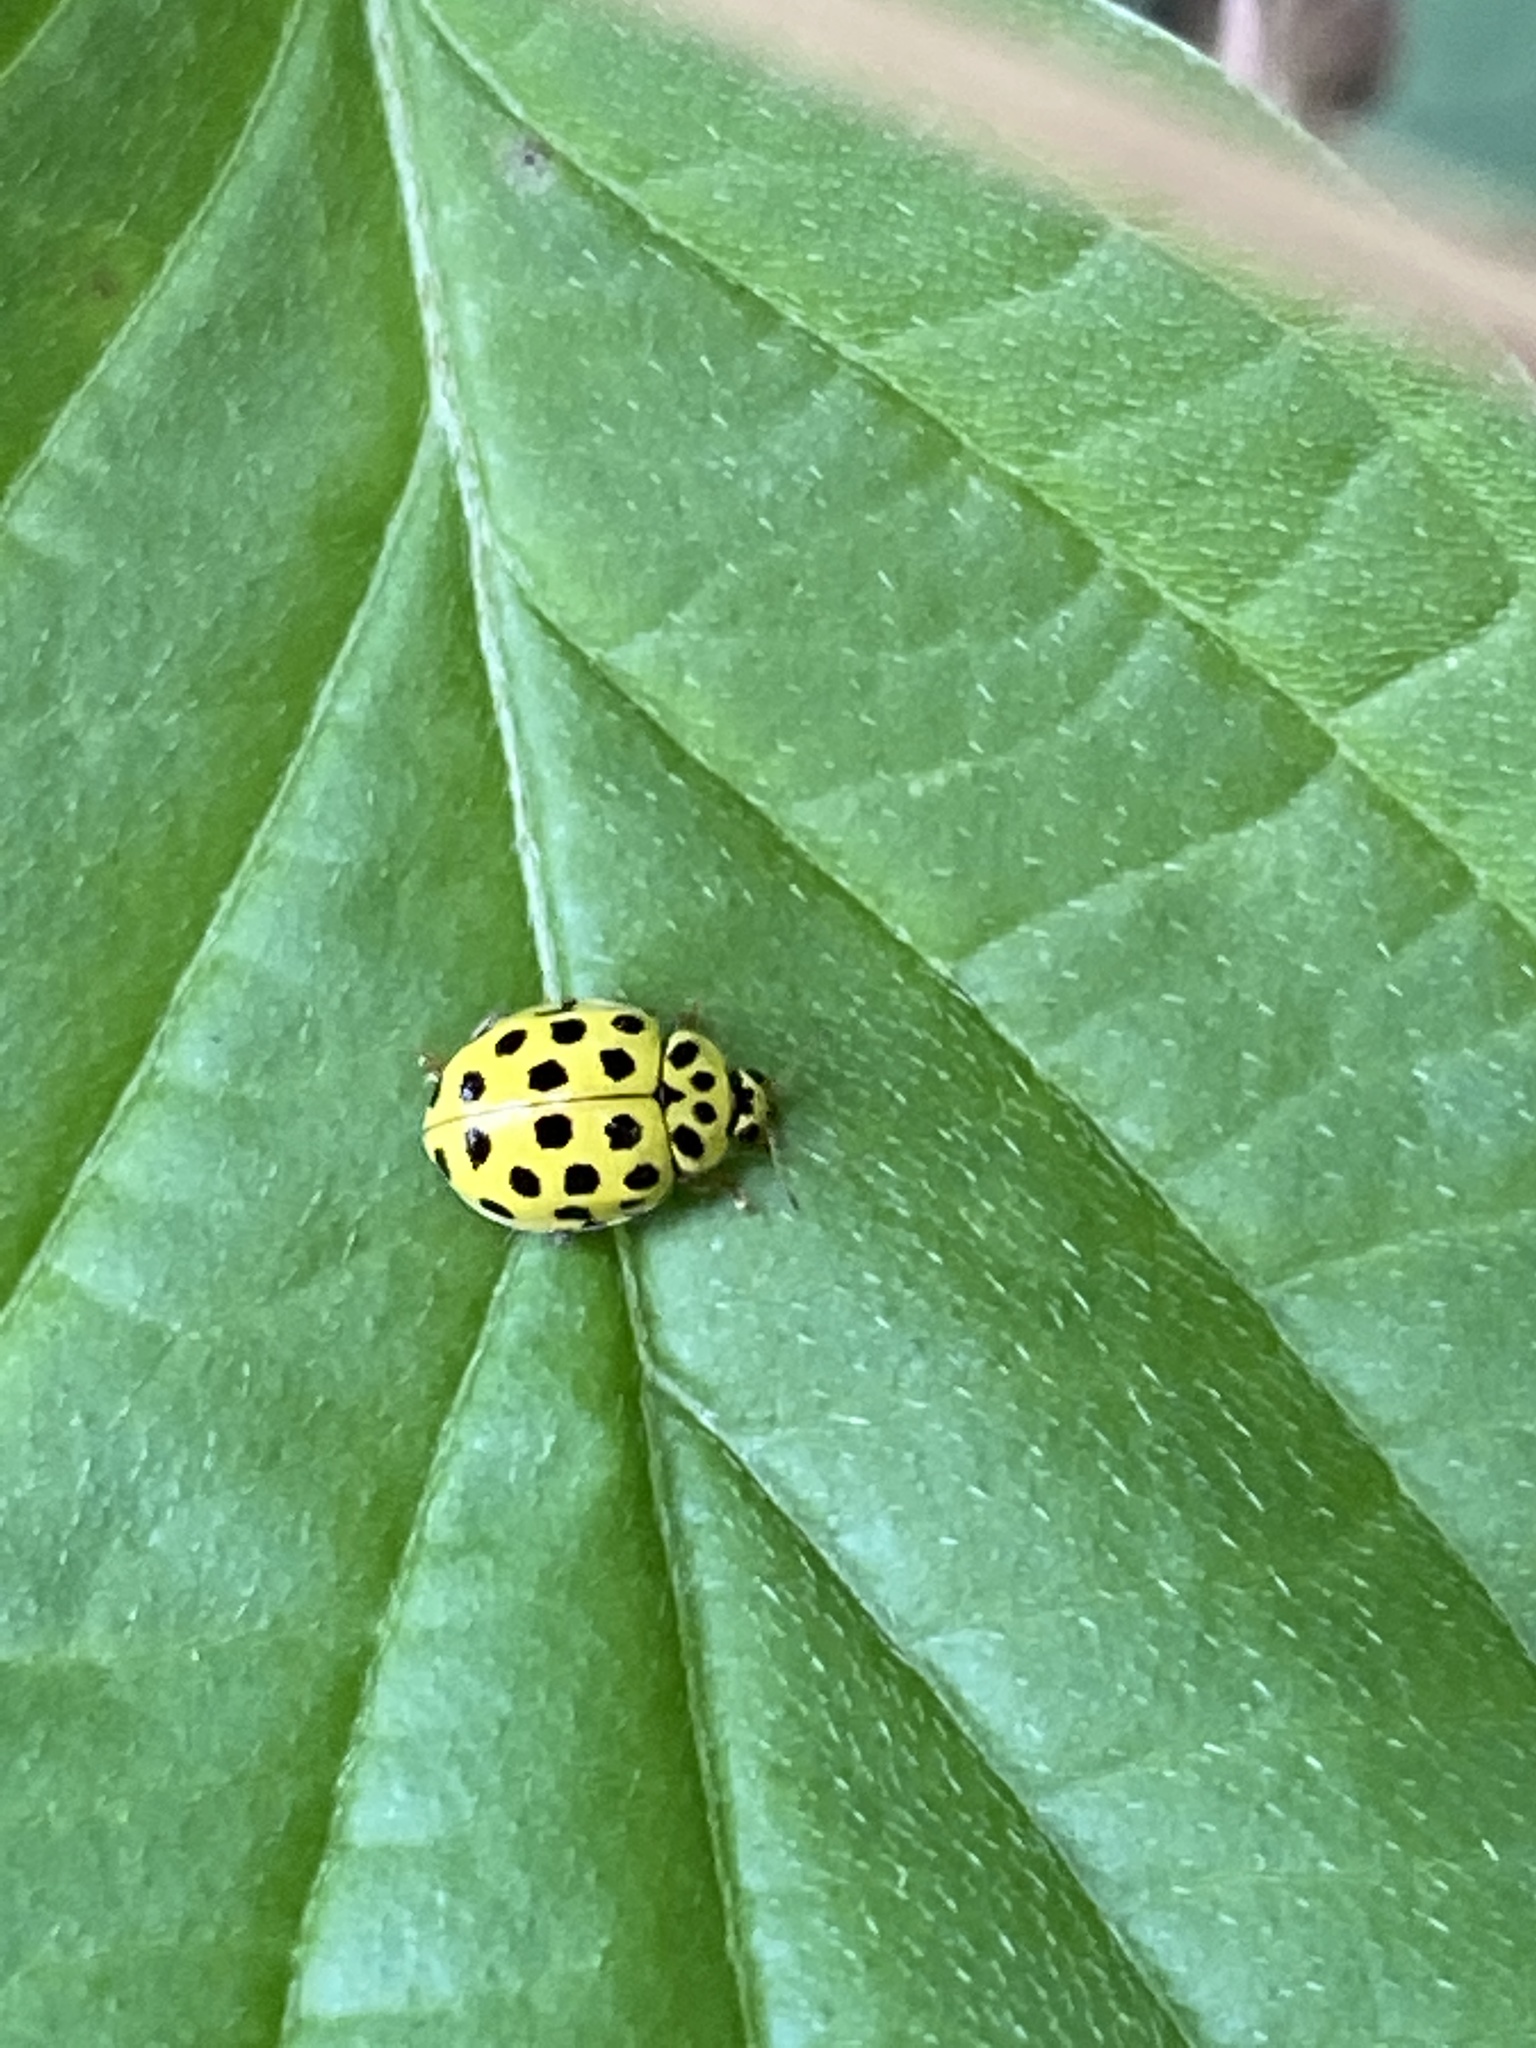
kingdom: Animalia
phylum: Arthropoda
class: Insecta
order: Coleoptera
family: Coccinellidae
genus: Psyllobora
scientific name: Psyllobora vigintiduopunctata
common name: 22-spot ladybird
